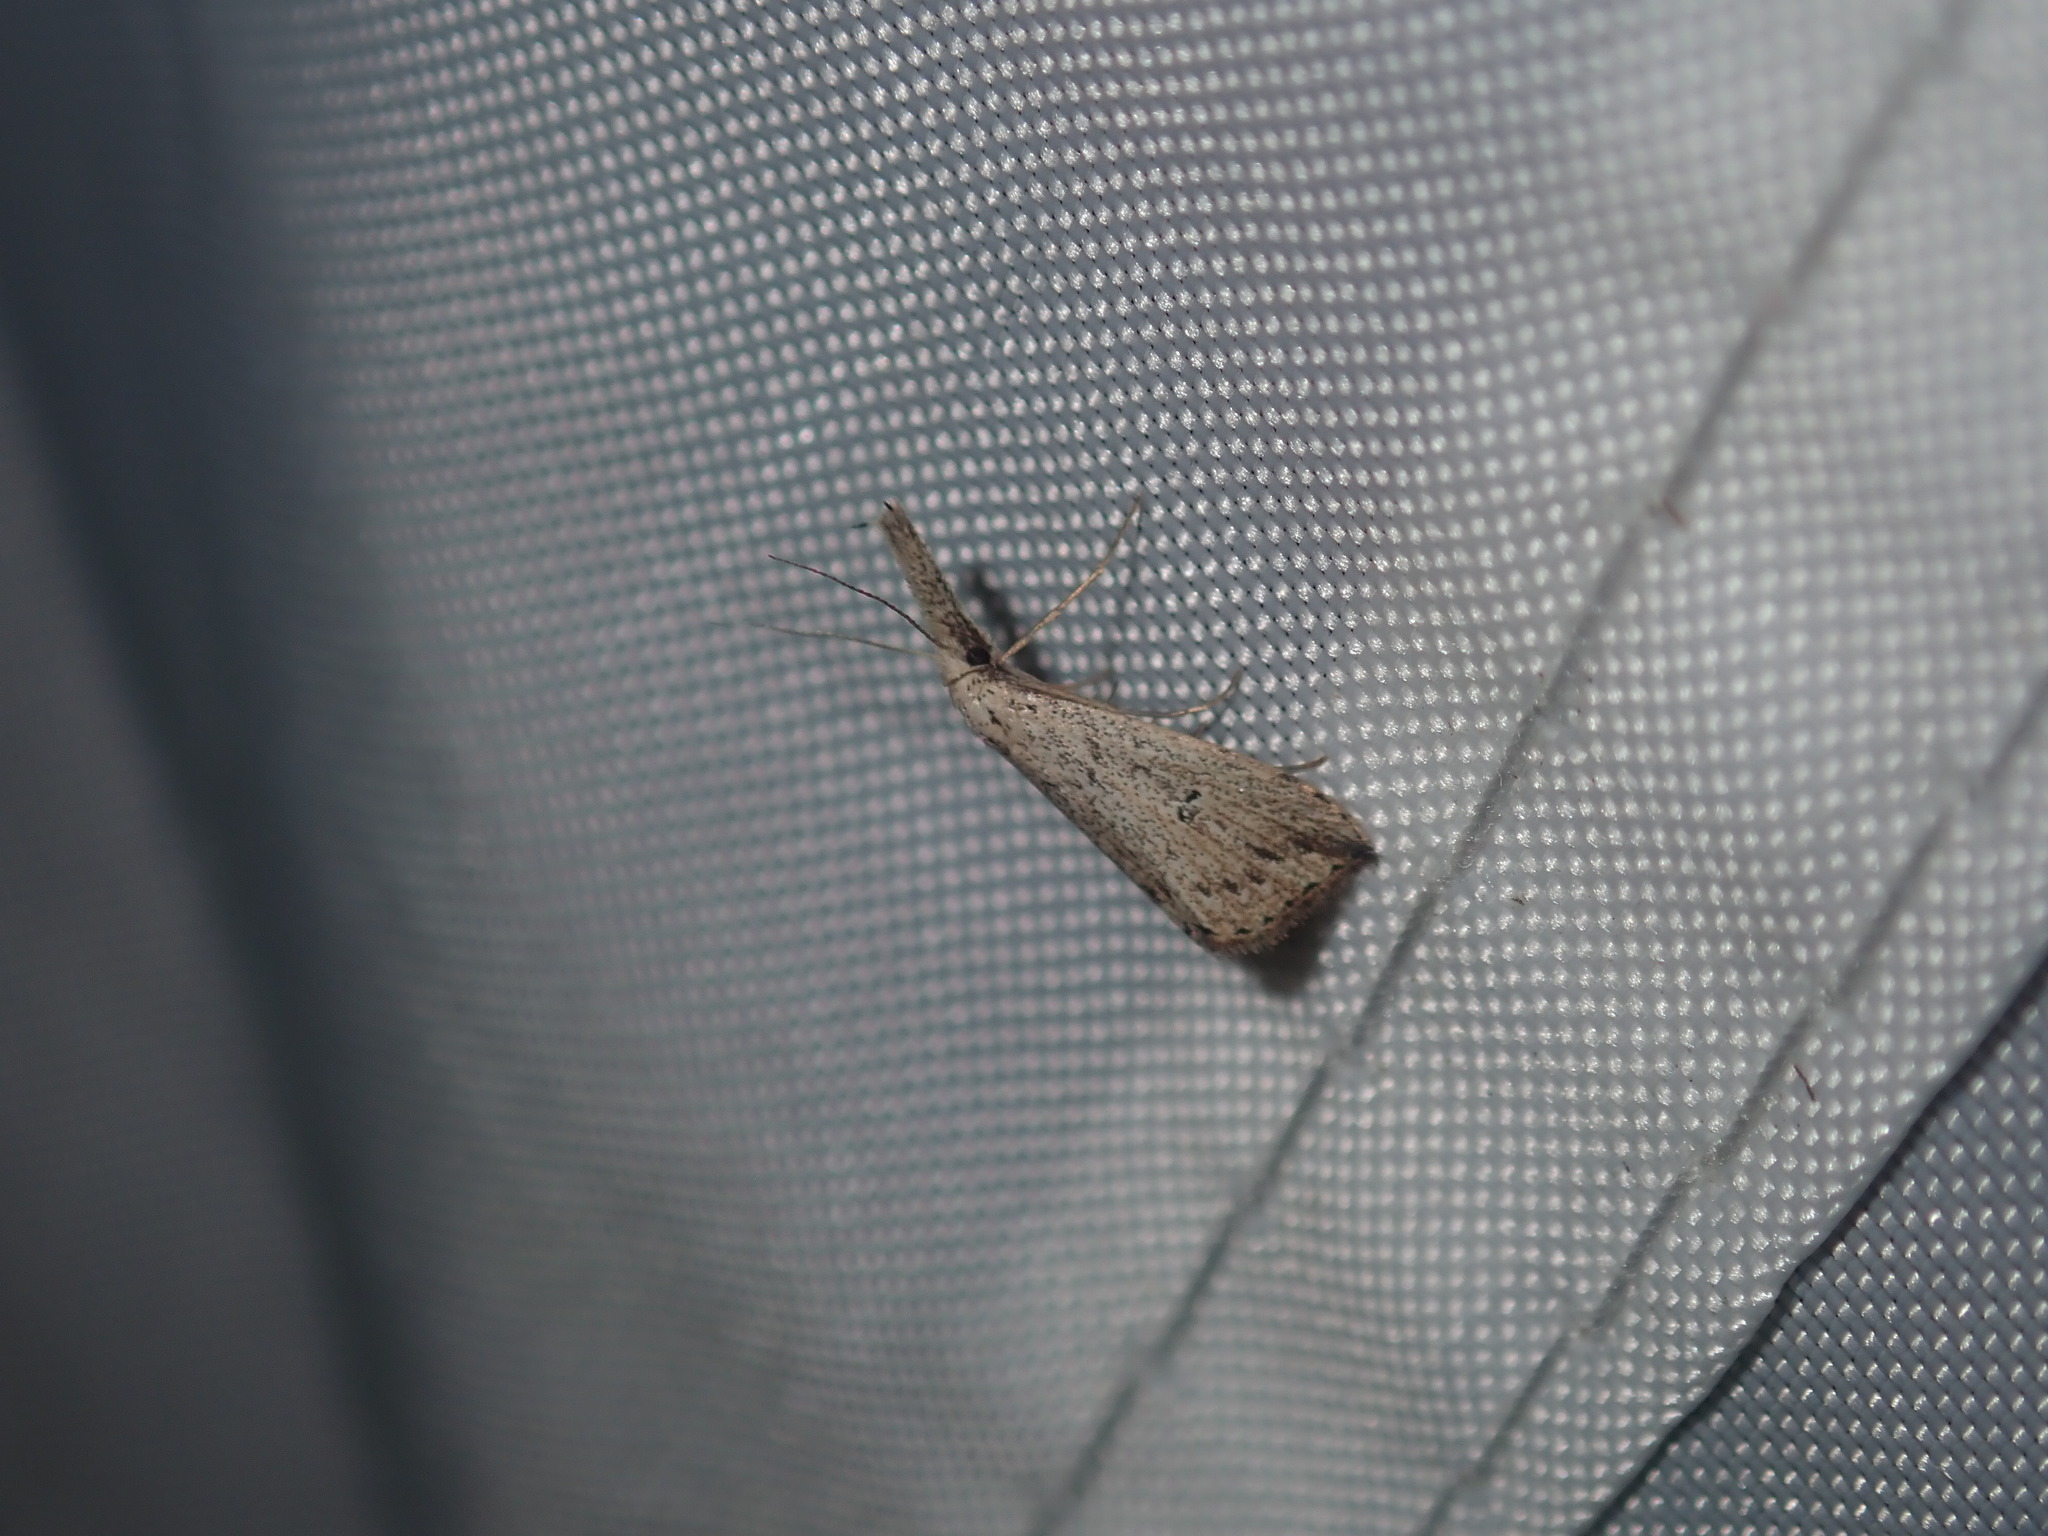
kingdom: Animalia
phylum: Arthropoda
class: Insecta
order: Lepidoptera
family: Erebidae
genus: Trigonistis
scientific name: Trigonistis demonias
